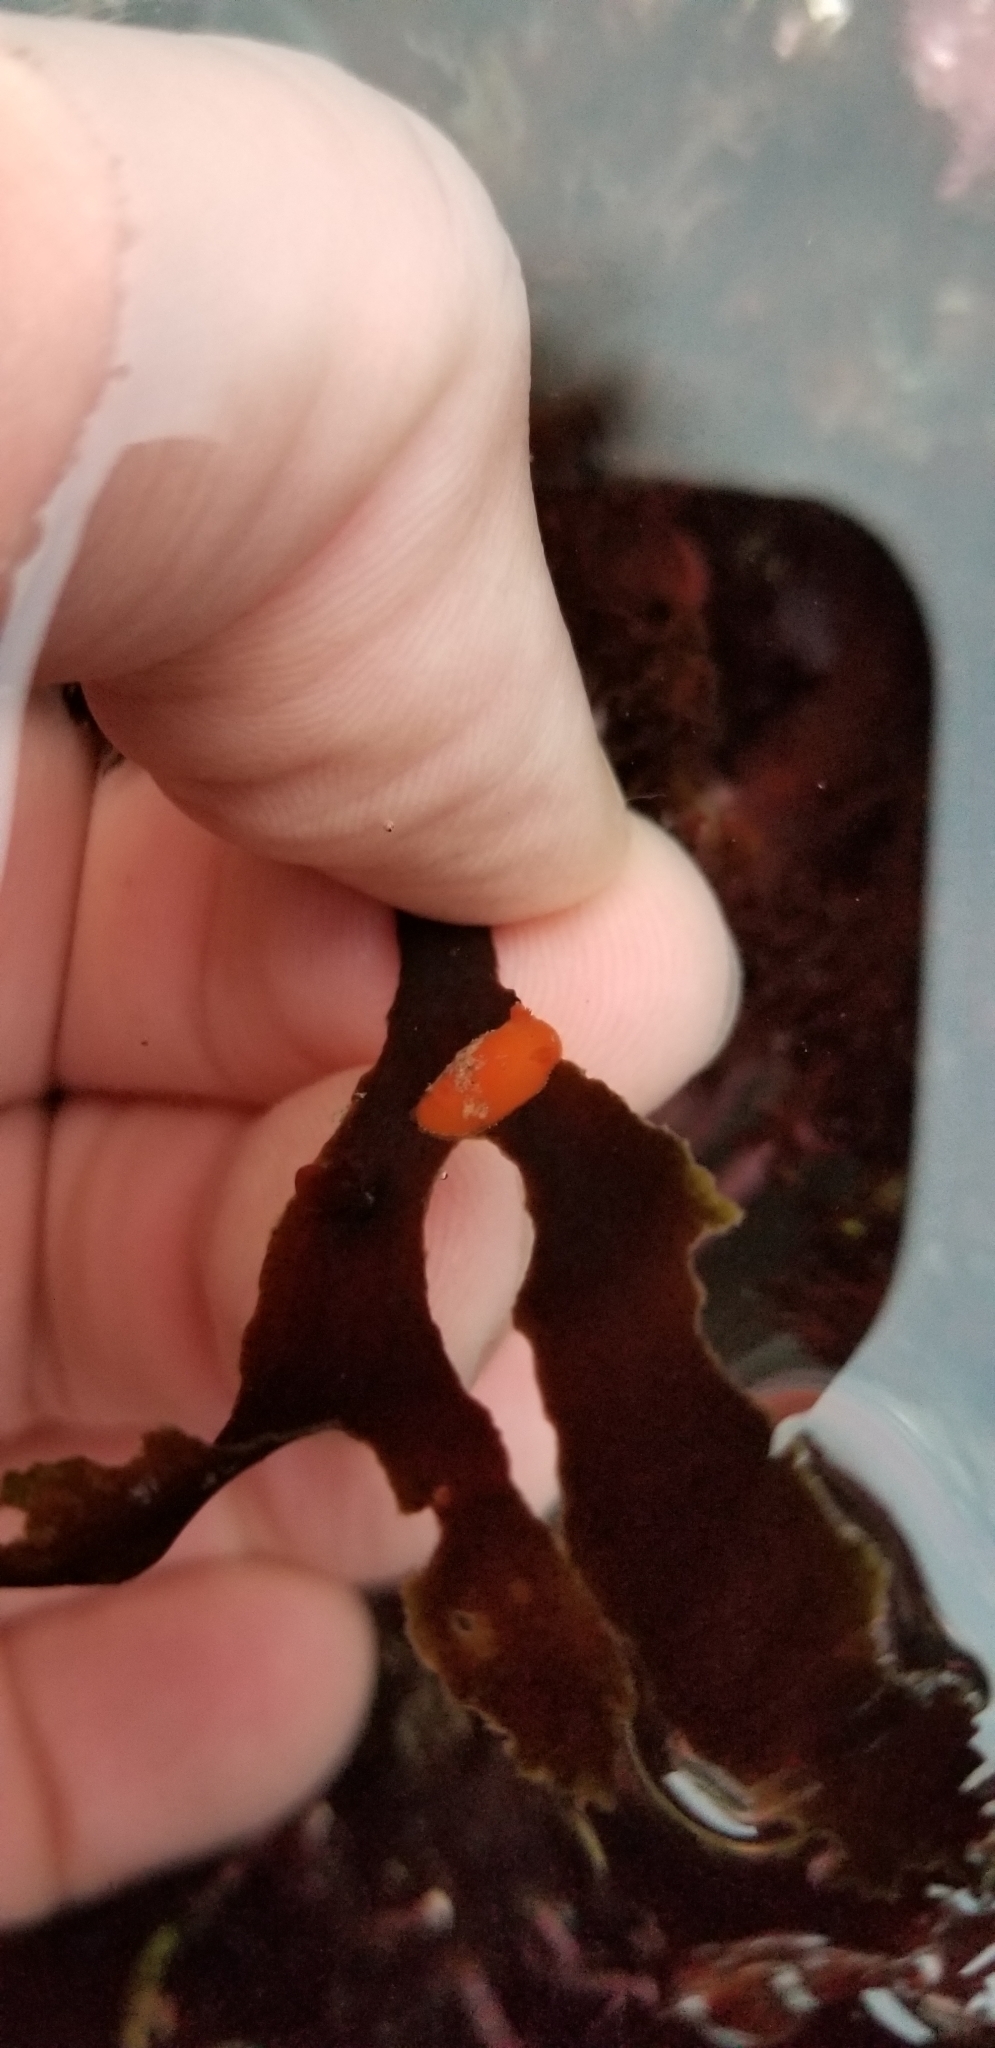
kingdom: Animalia
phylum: Mollusca
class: Gastropoda
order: Nudibranchia
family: Discodorididae
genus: Rostanga
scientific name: Rostanga pulchra
